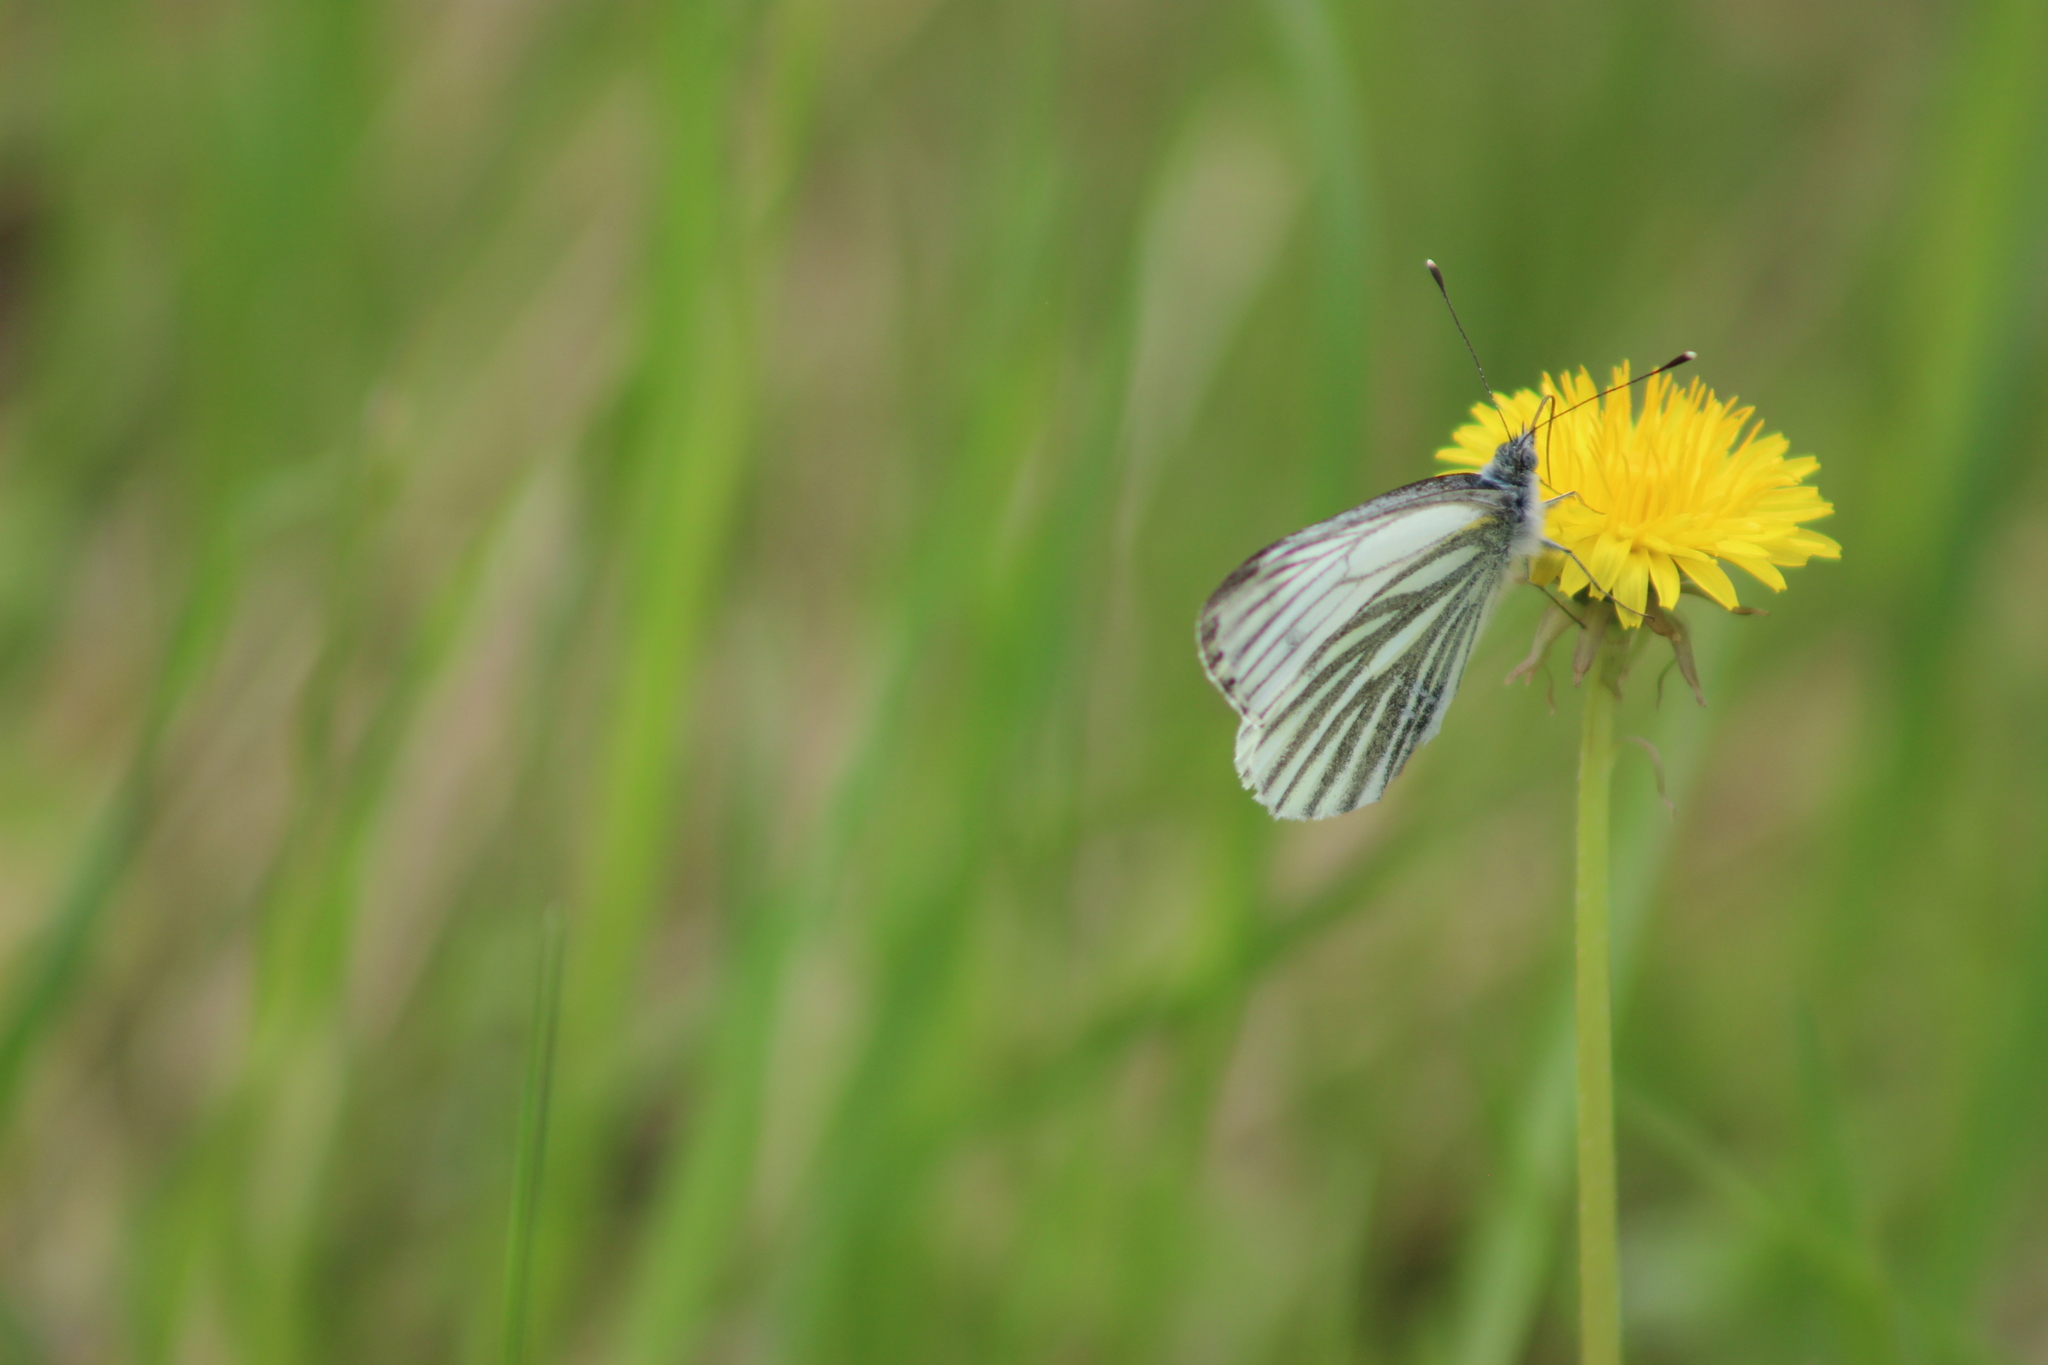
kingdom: Animalia
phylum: Arthropoda
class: Insecta
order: Lepidoptera
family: Pieridae
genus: Pieris
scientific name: Pieris napi
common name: Green-veined white
